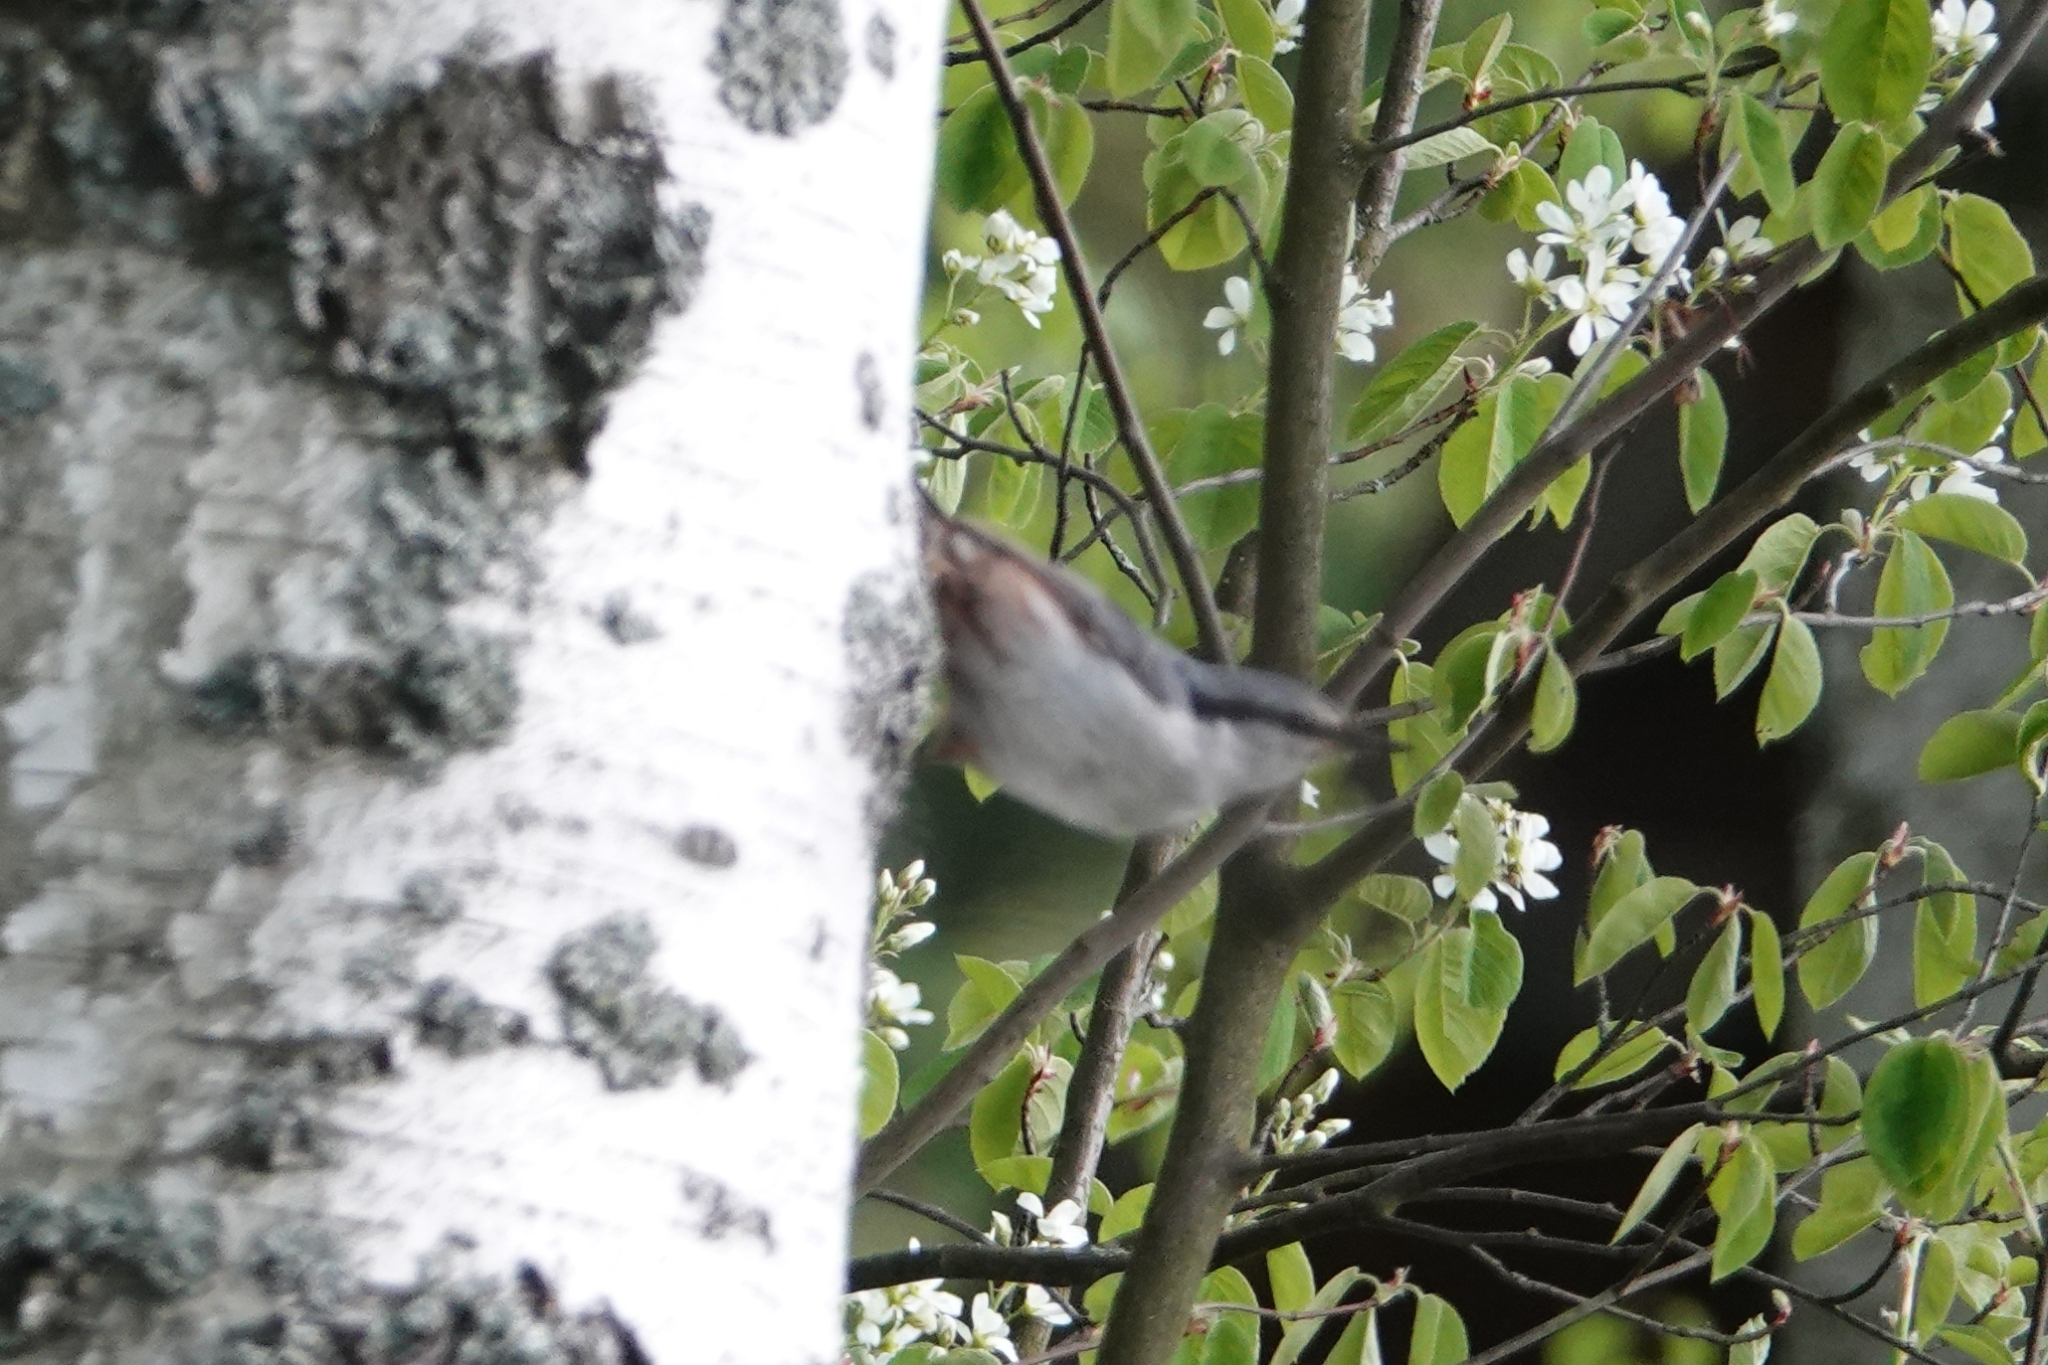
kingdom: Animalia
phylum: Chordata
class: Aves
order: Passeriformes
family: Sittidae
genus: Sitta
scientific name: Sitta europaea
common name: Eurasian nuthatch
